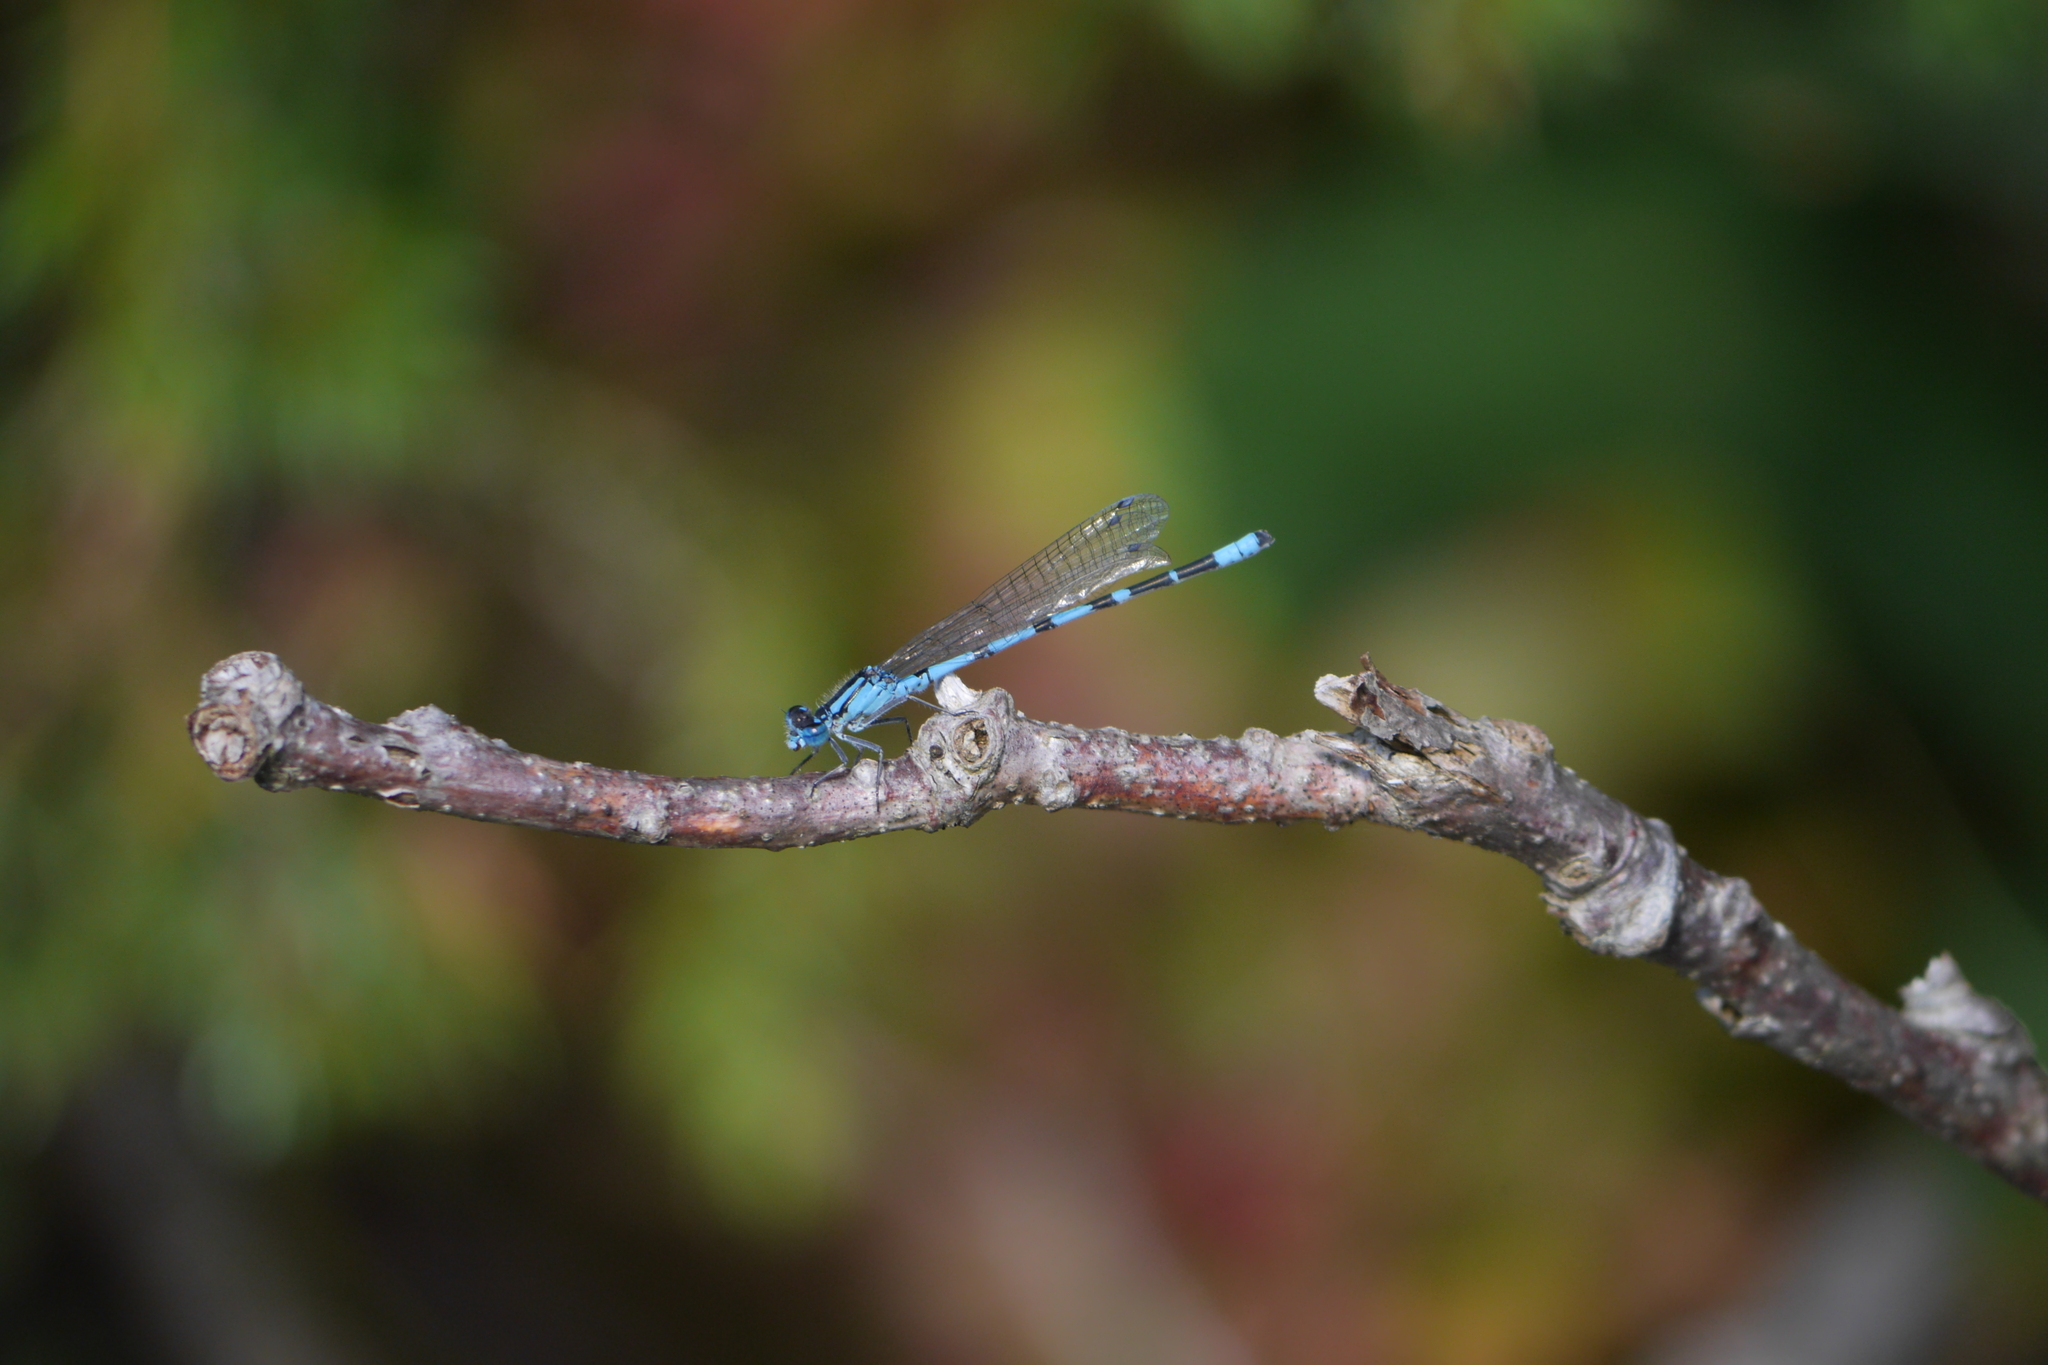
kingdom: Animalia
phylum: Arthropoda
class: Insecta
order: Odonata
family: Coenagrionidae
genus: Enallagma
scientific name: Enallagma cyathigerum
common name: Common blue damselfly
